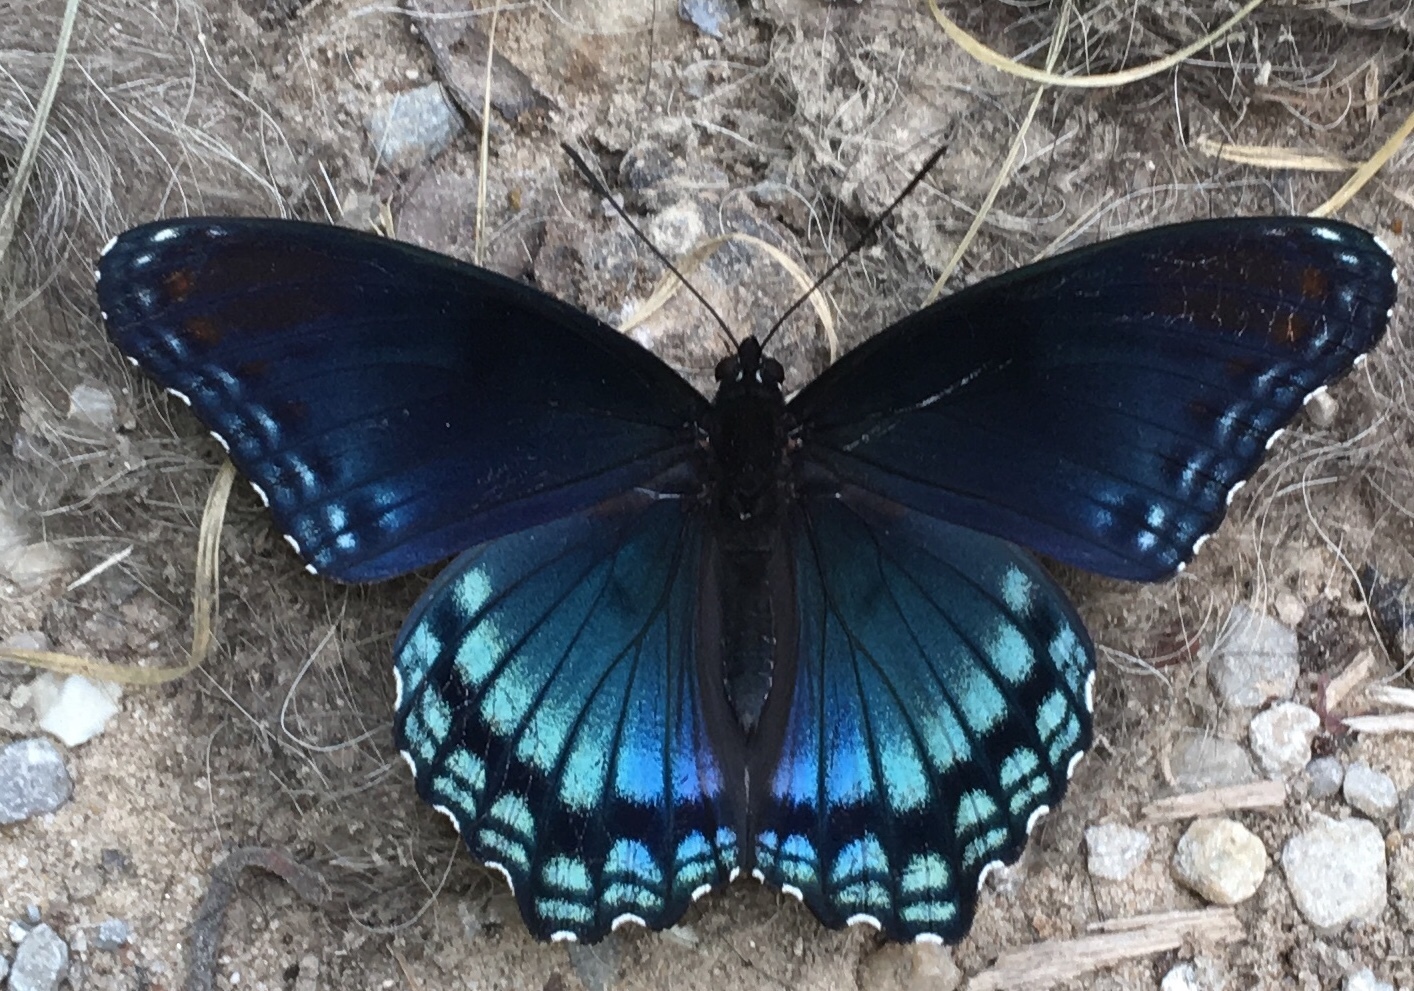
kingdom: Animalia
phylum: Arthropoda
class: Insecta
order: Lepidoptera
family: Nymphalidae
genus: Limenitis
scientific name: Limenitis astyanax
